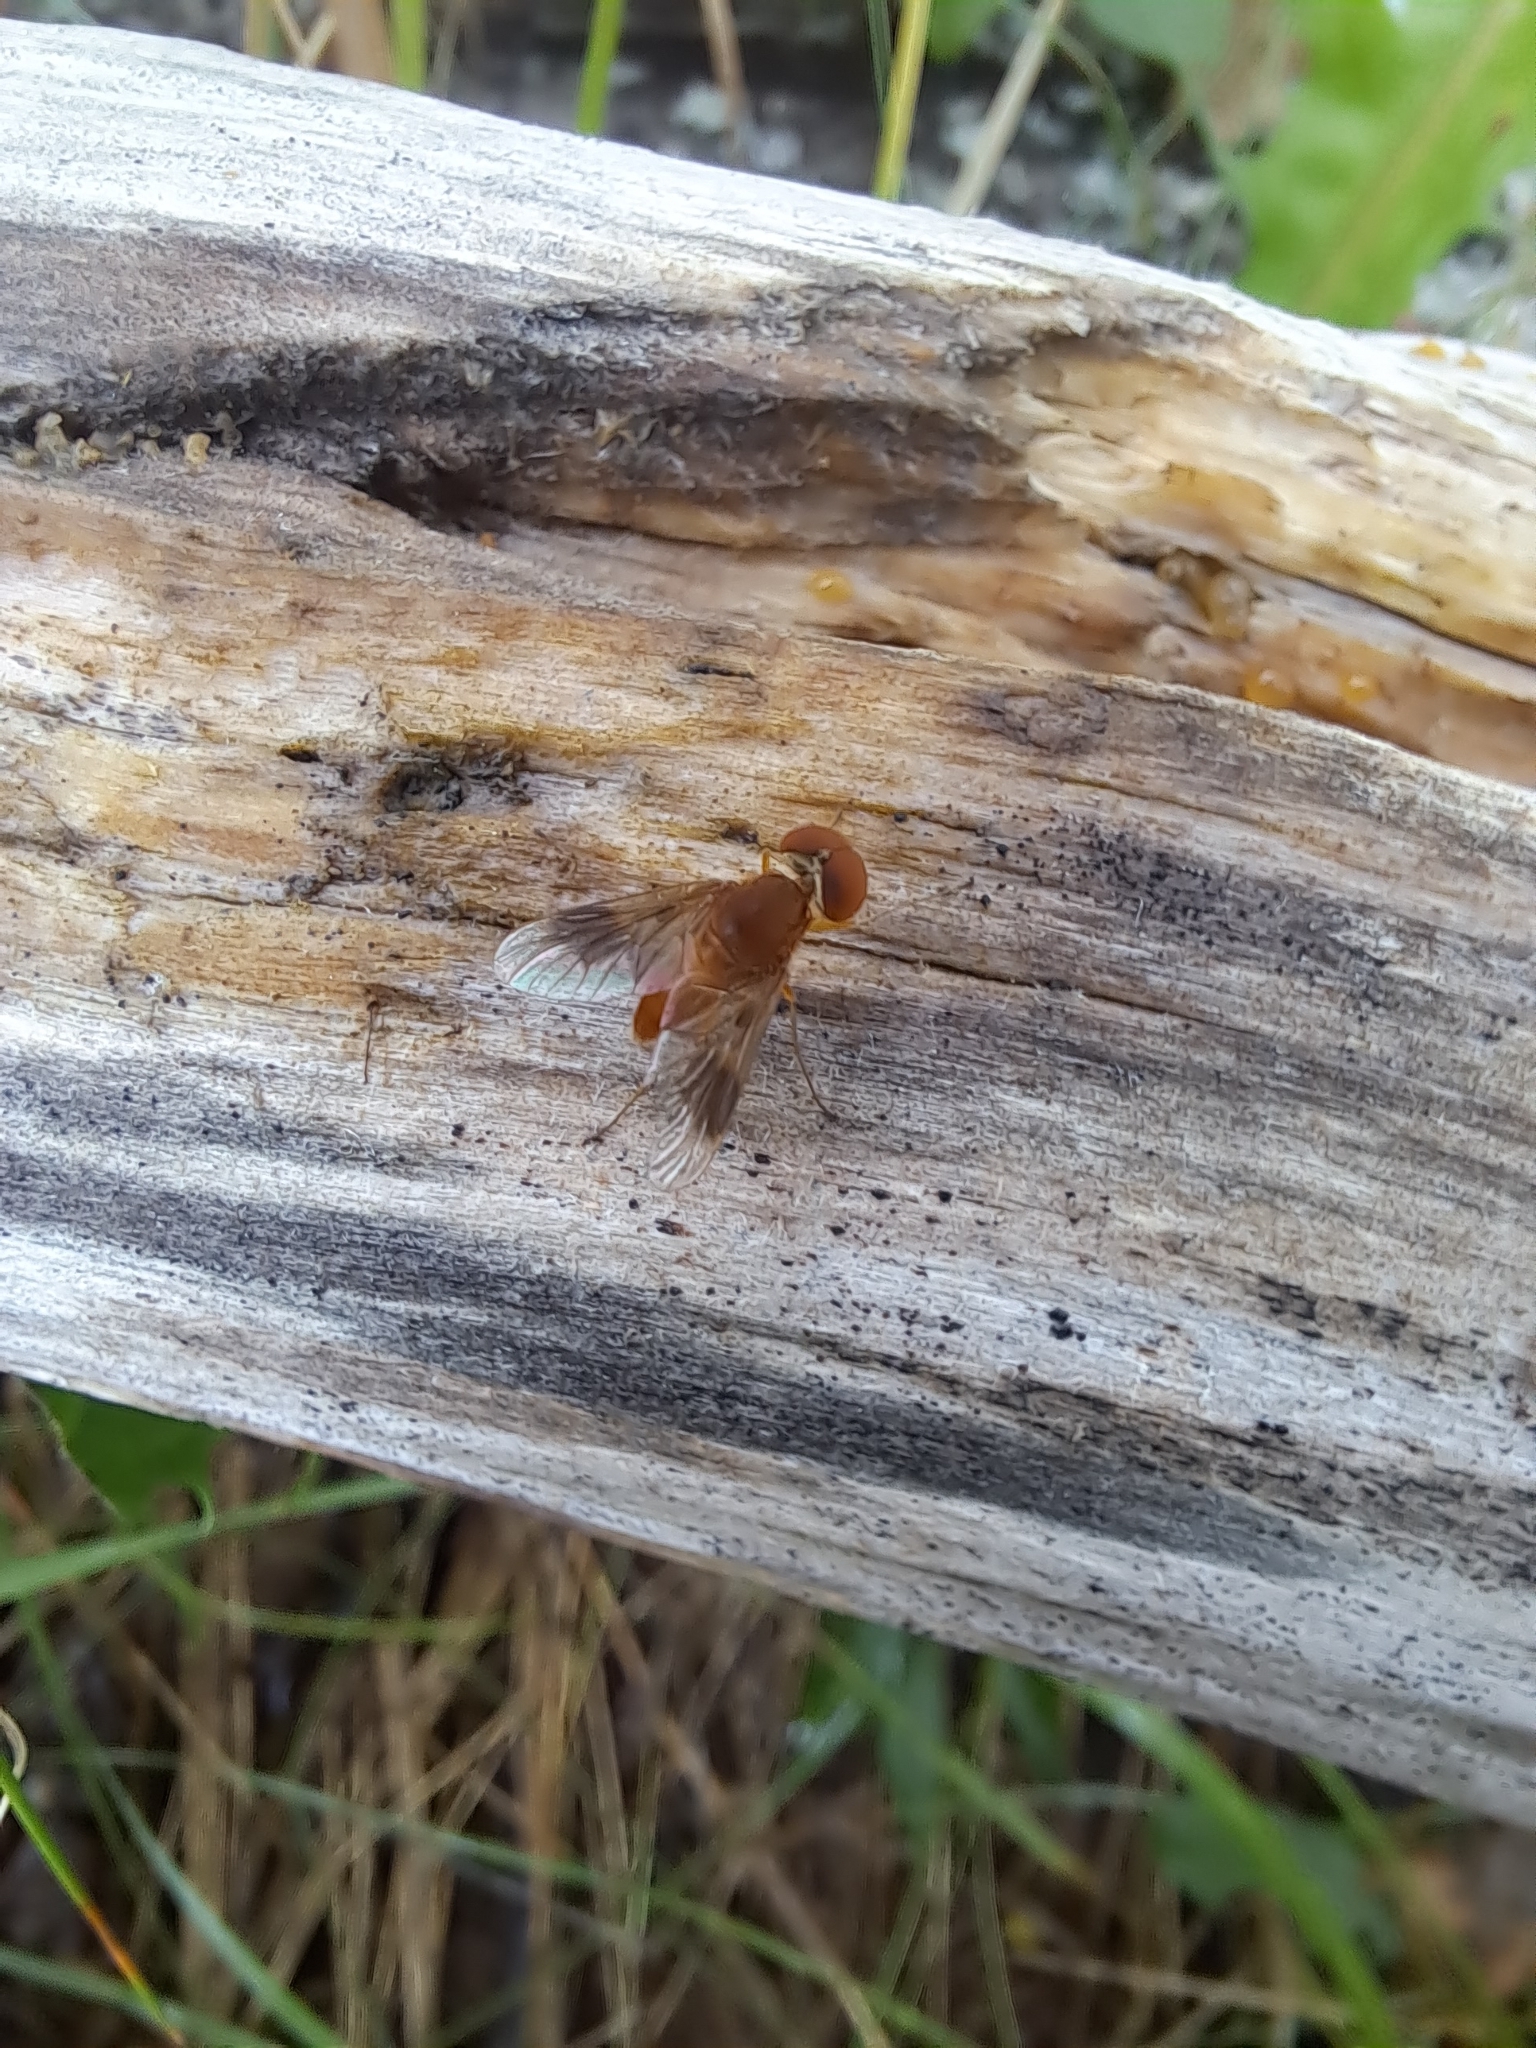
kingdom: Animalia
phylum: Arthropoda
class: Insecta
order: Diptera
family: Rhagionidae
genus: Chrysopilus
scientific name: Chrysopilus quadratus
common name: Quadrate snipe fly
